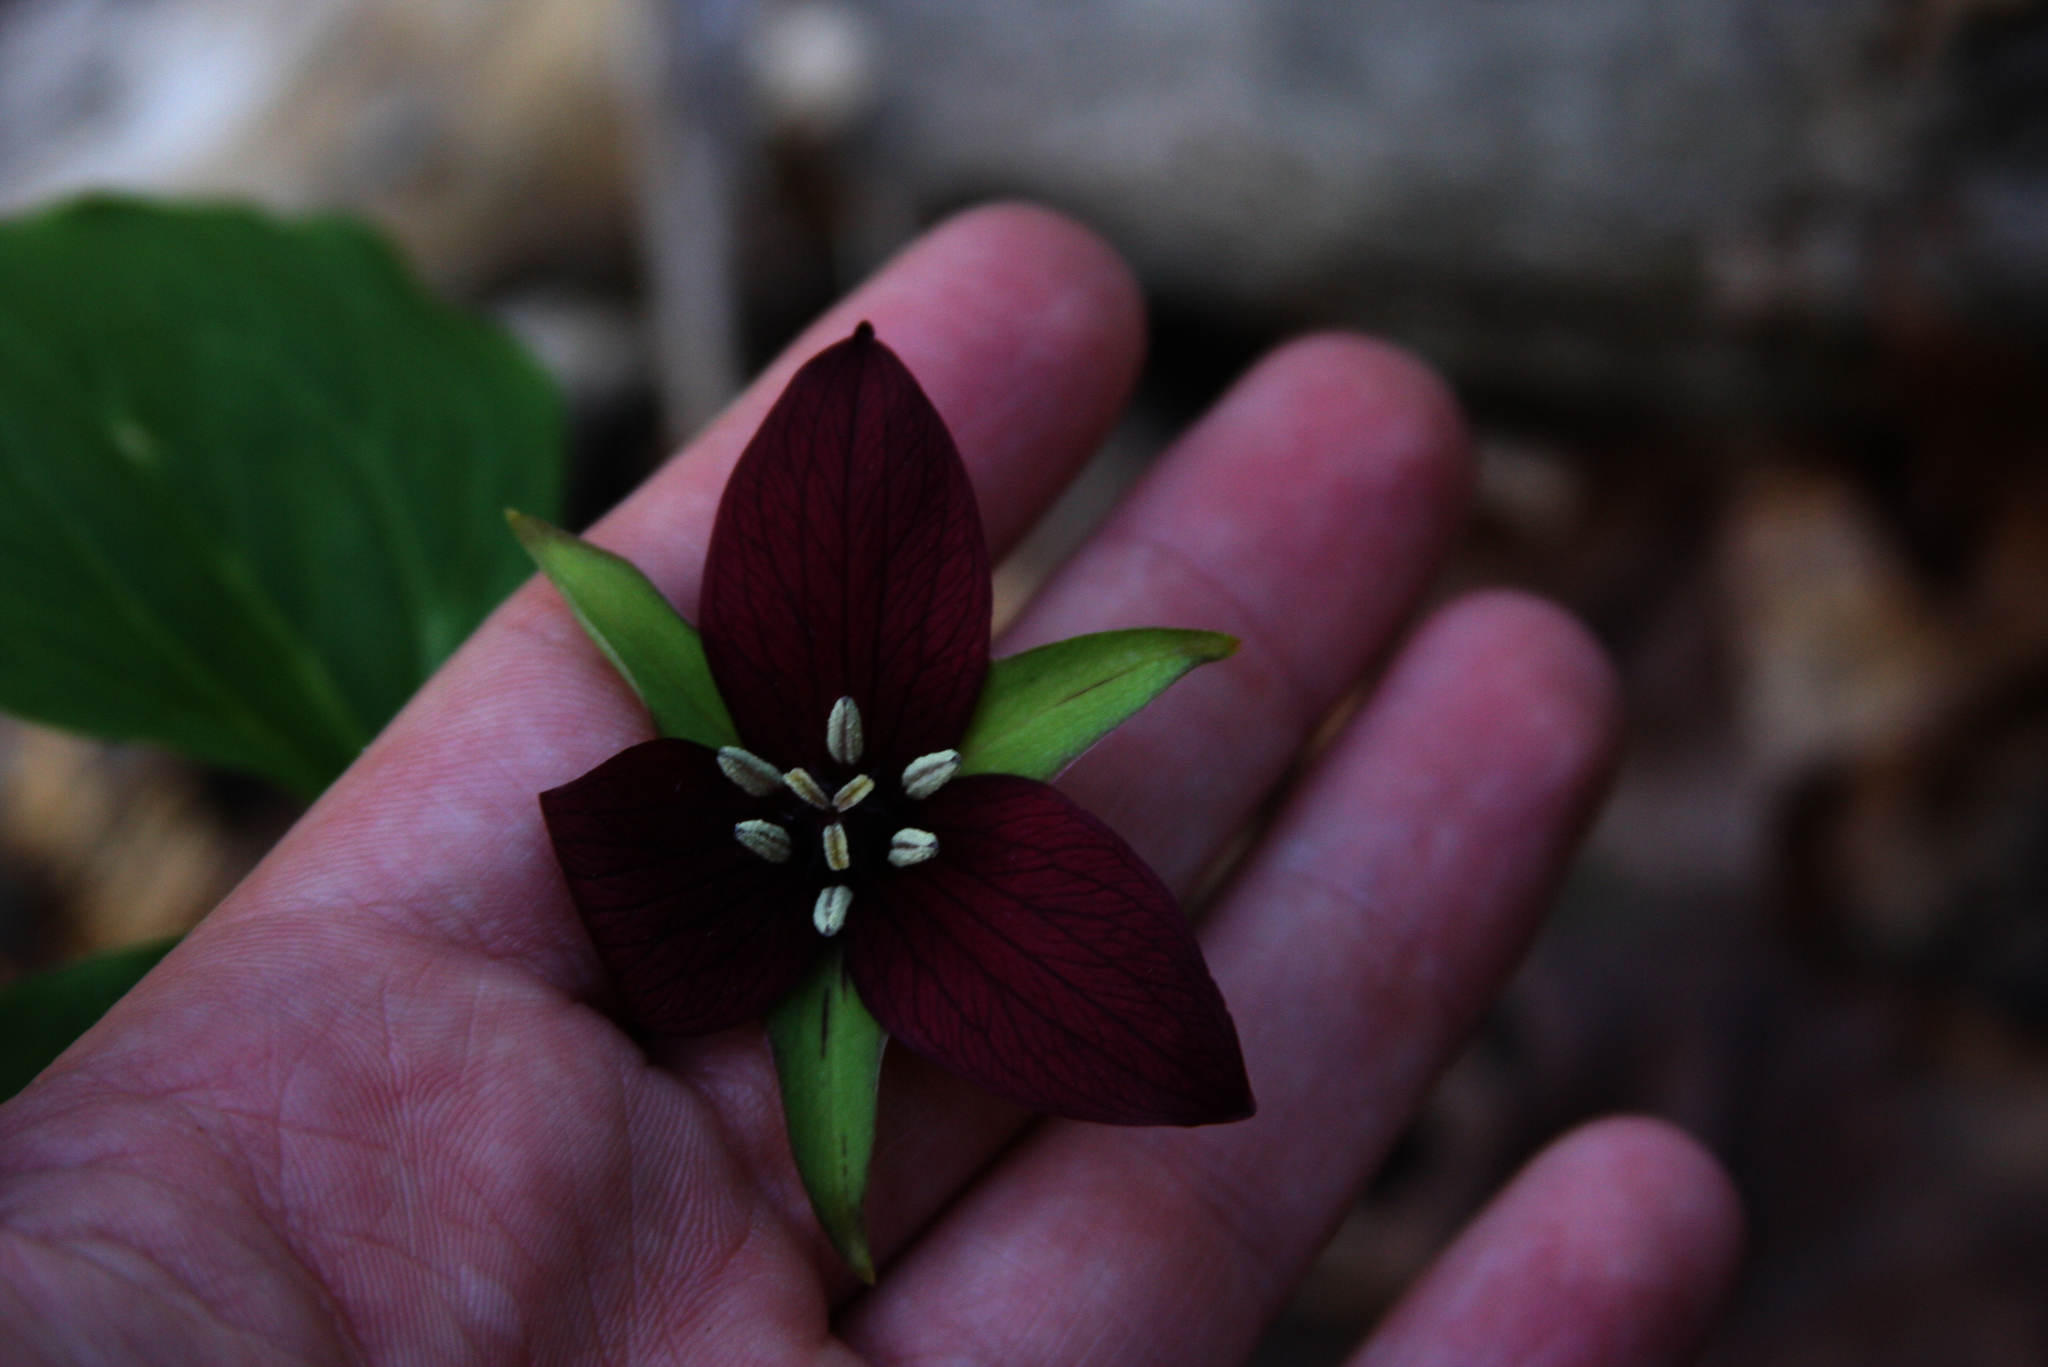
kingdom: Plantae
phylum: Tracheophyta
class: Liliopsida
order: Liliales
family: Melanthiaceae
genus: Trillium
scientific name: Trillium erectum
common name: Purple trillium
